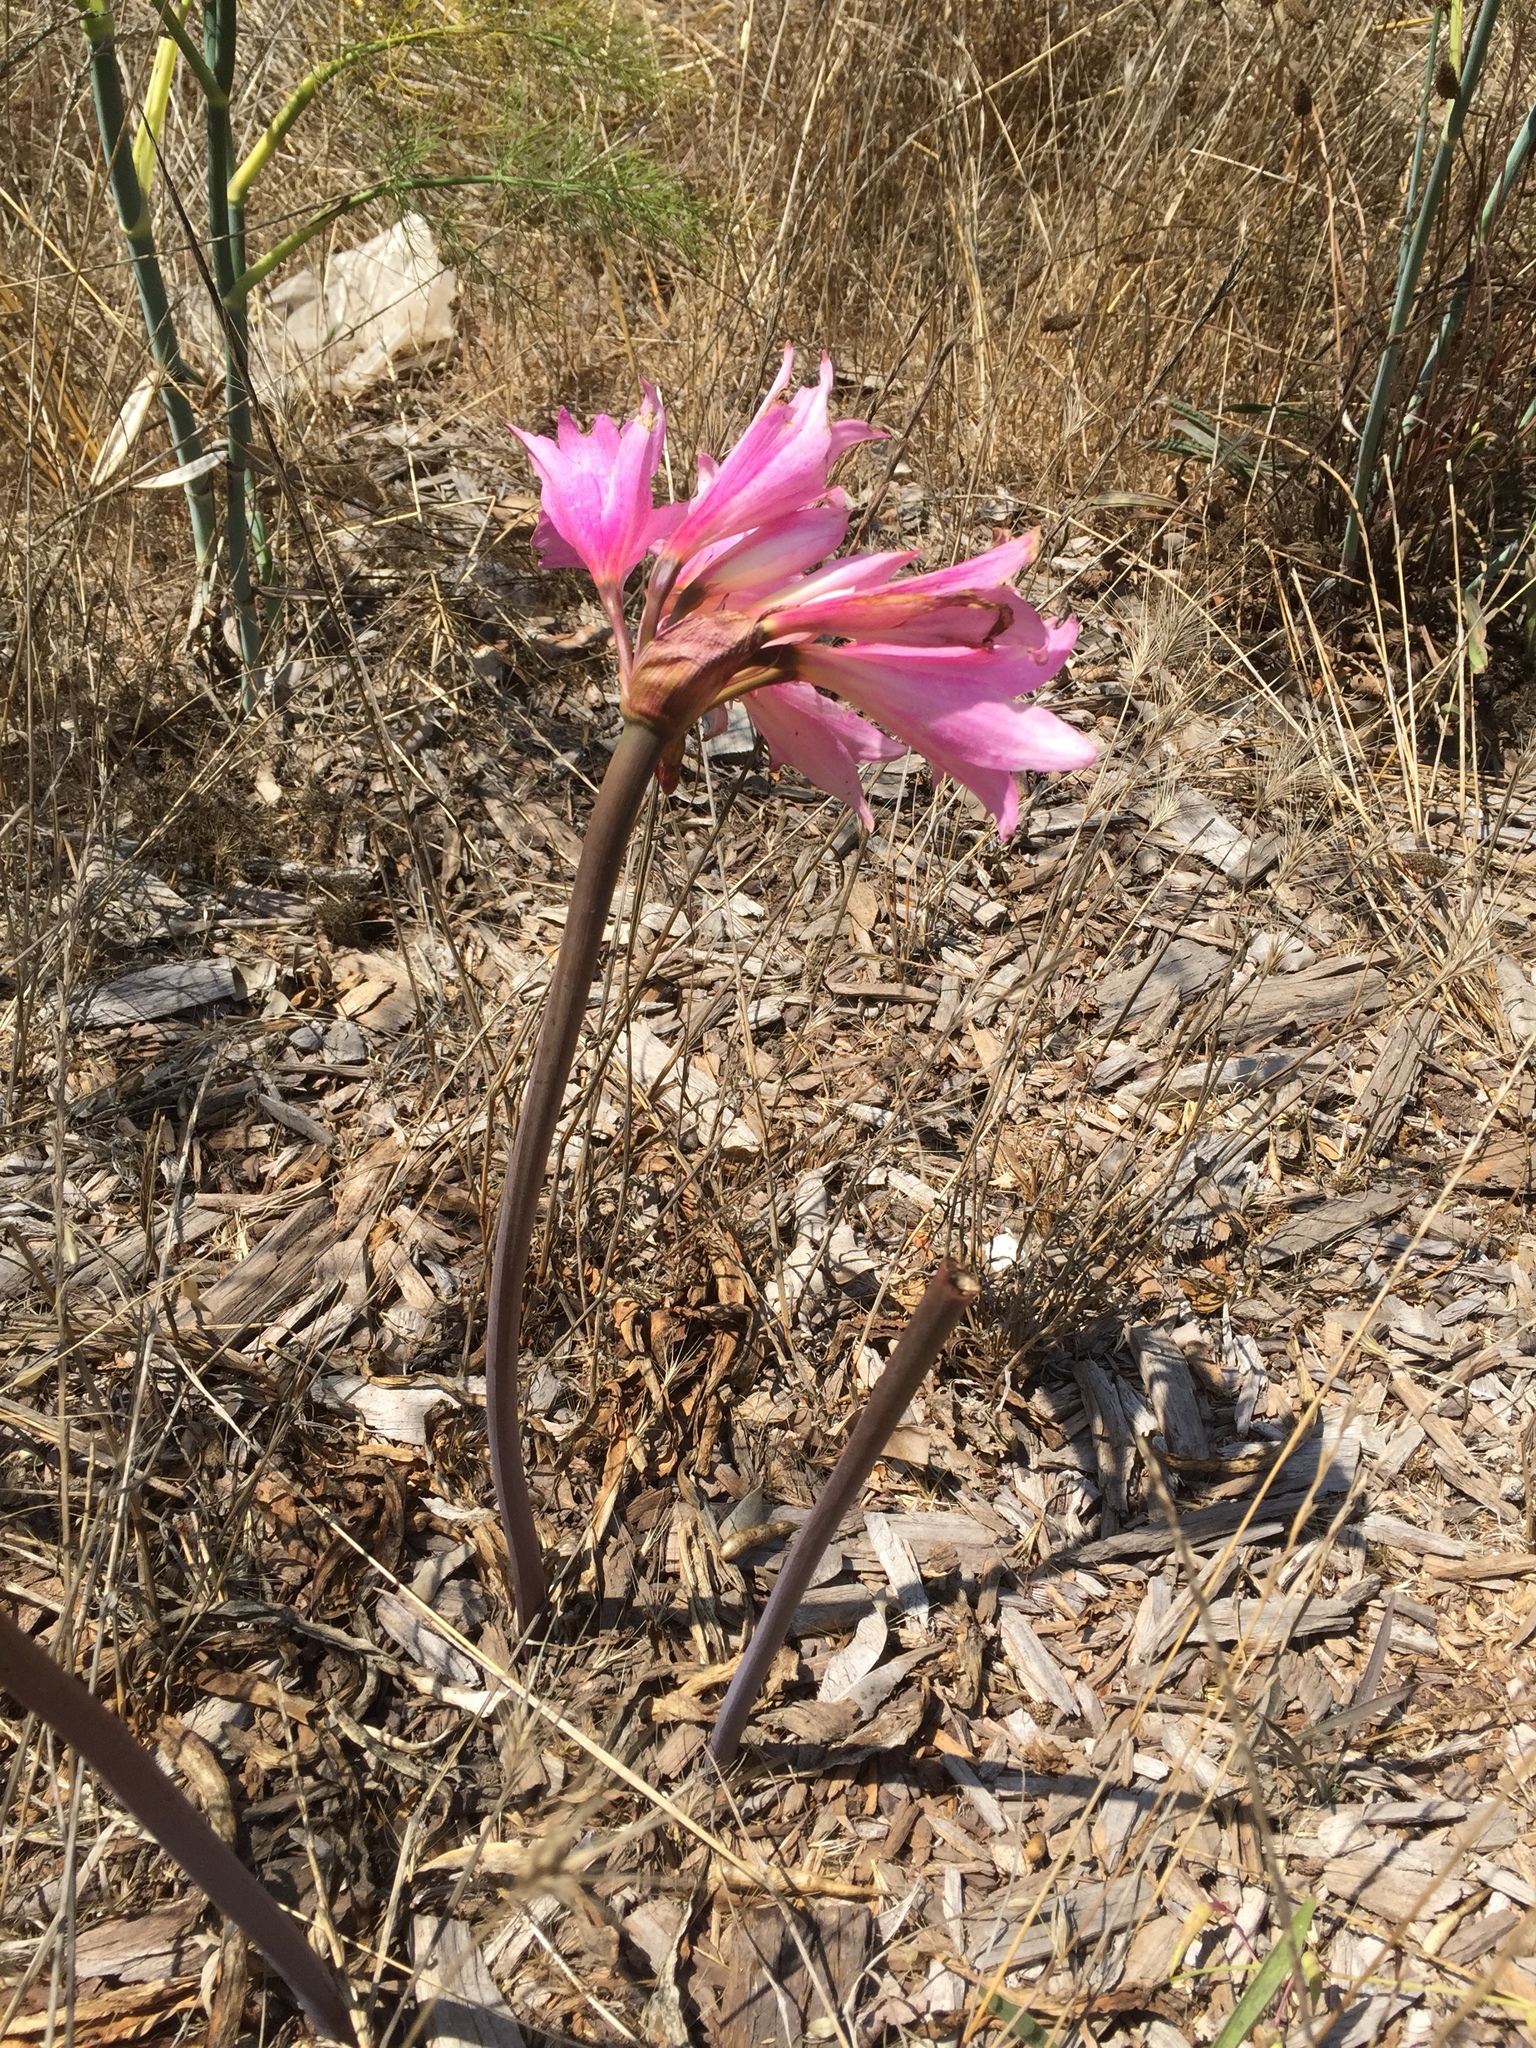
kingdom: Plantae
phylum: Tracheophyta
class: Liliopsida
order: Asparagales
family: Amaryllidaceae
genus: Amaryllis
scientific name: Amaryllis belladonna
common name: Jersey lily
